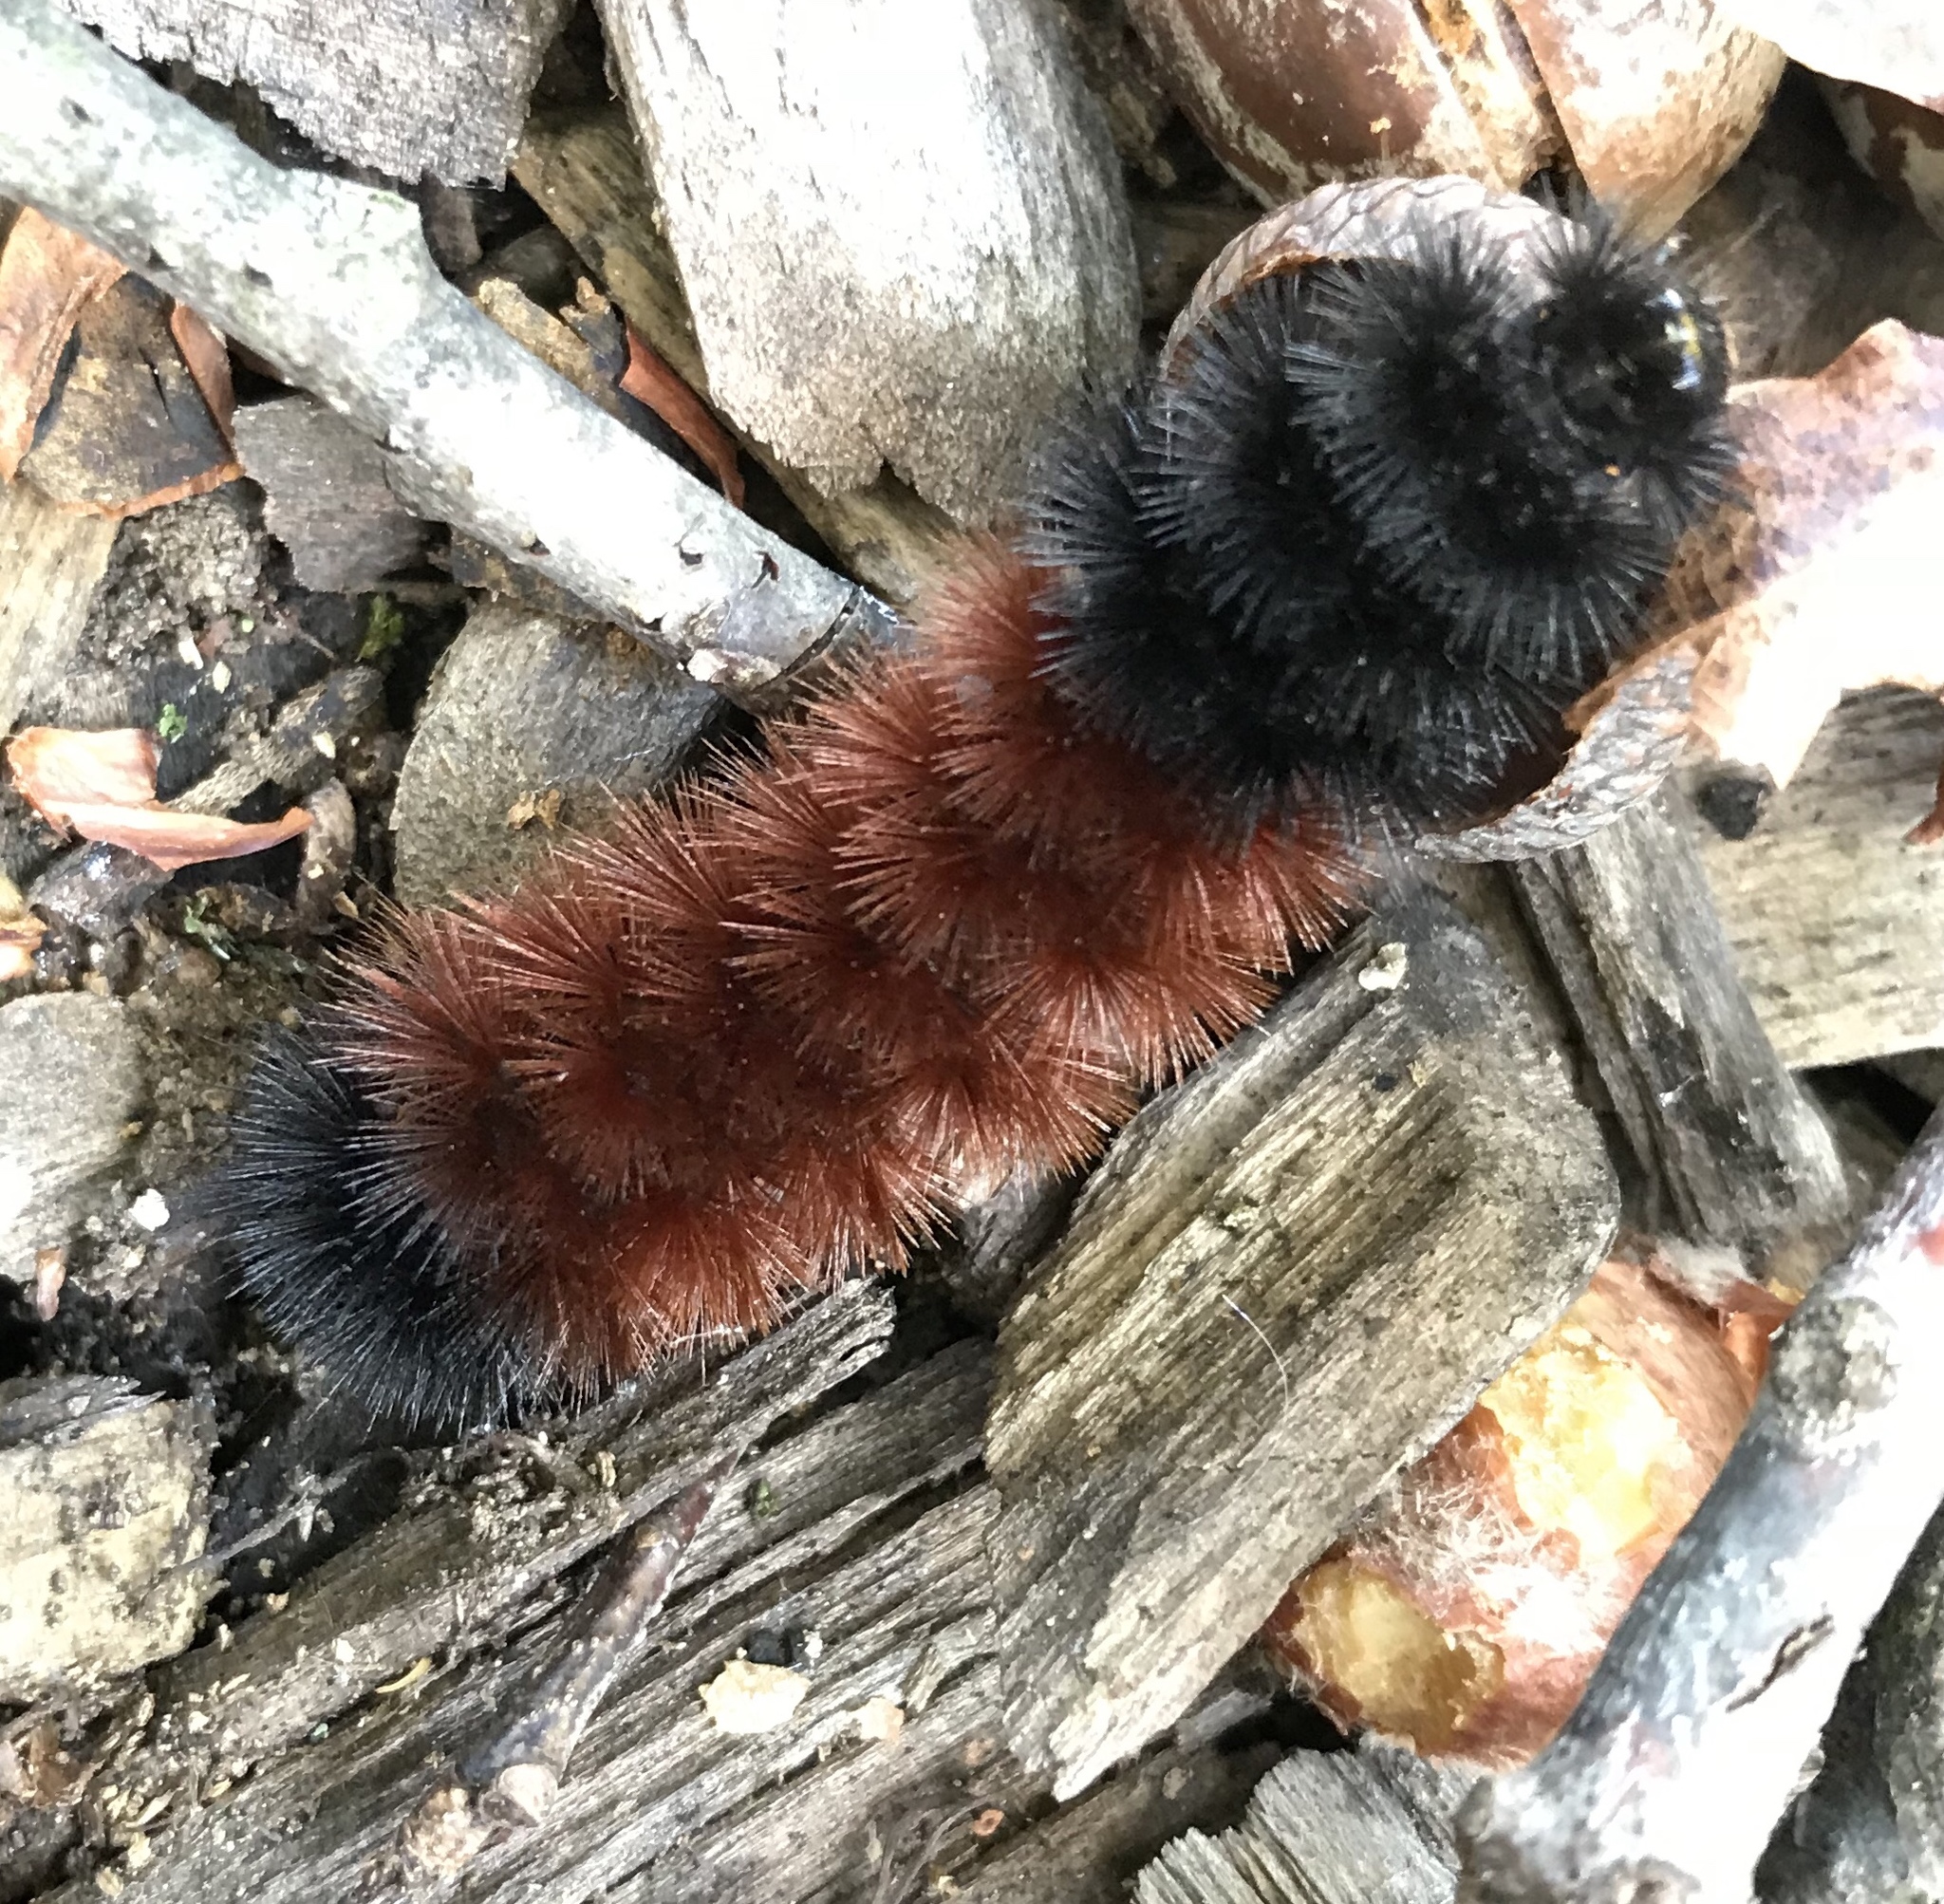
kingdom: Animalia
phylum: Arthropoda
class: Insecta
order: Lepidoptera
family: Erebidae
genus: Pyrrharctia
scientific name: Pyrrharctia isabella
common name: Isabella tiger moth
